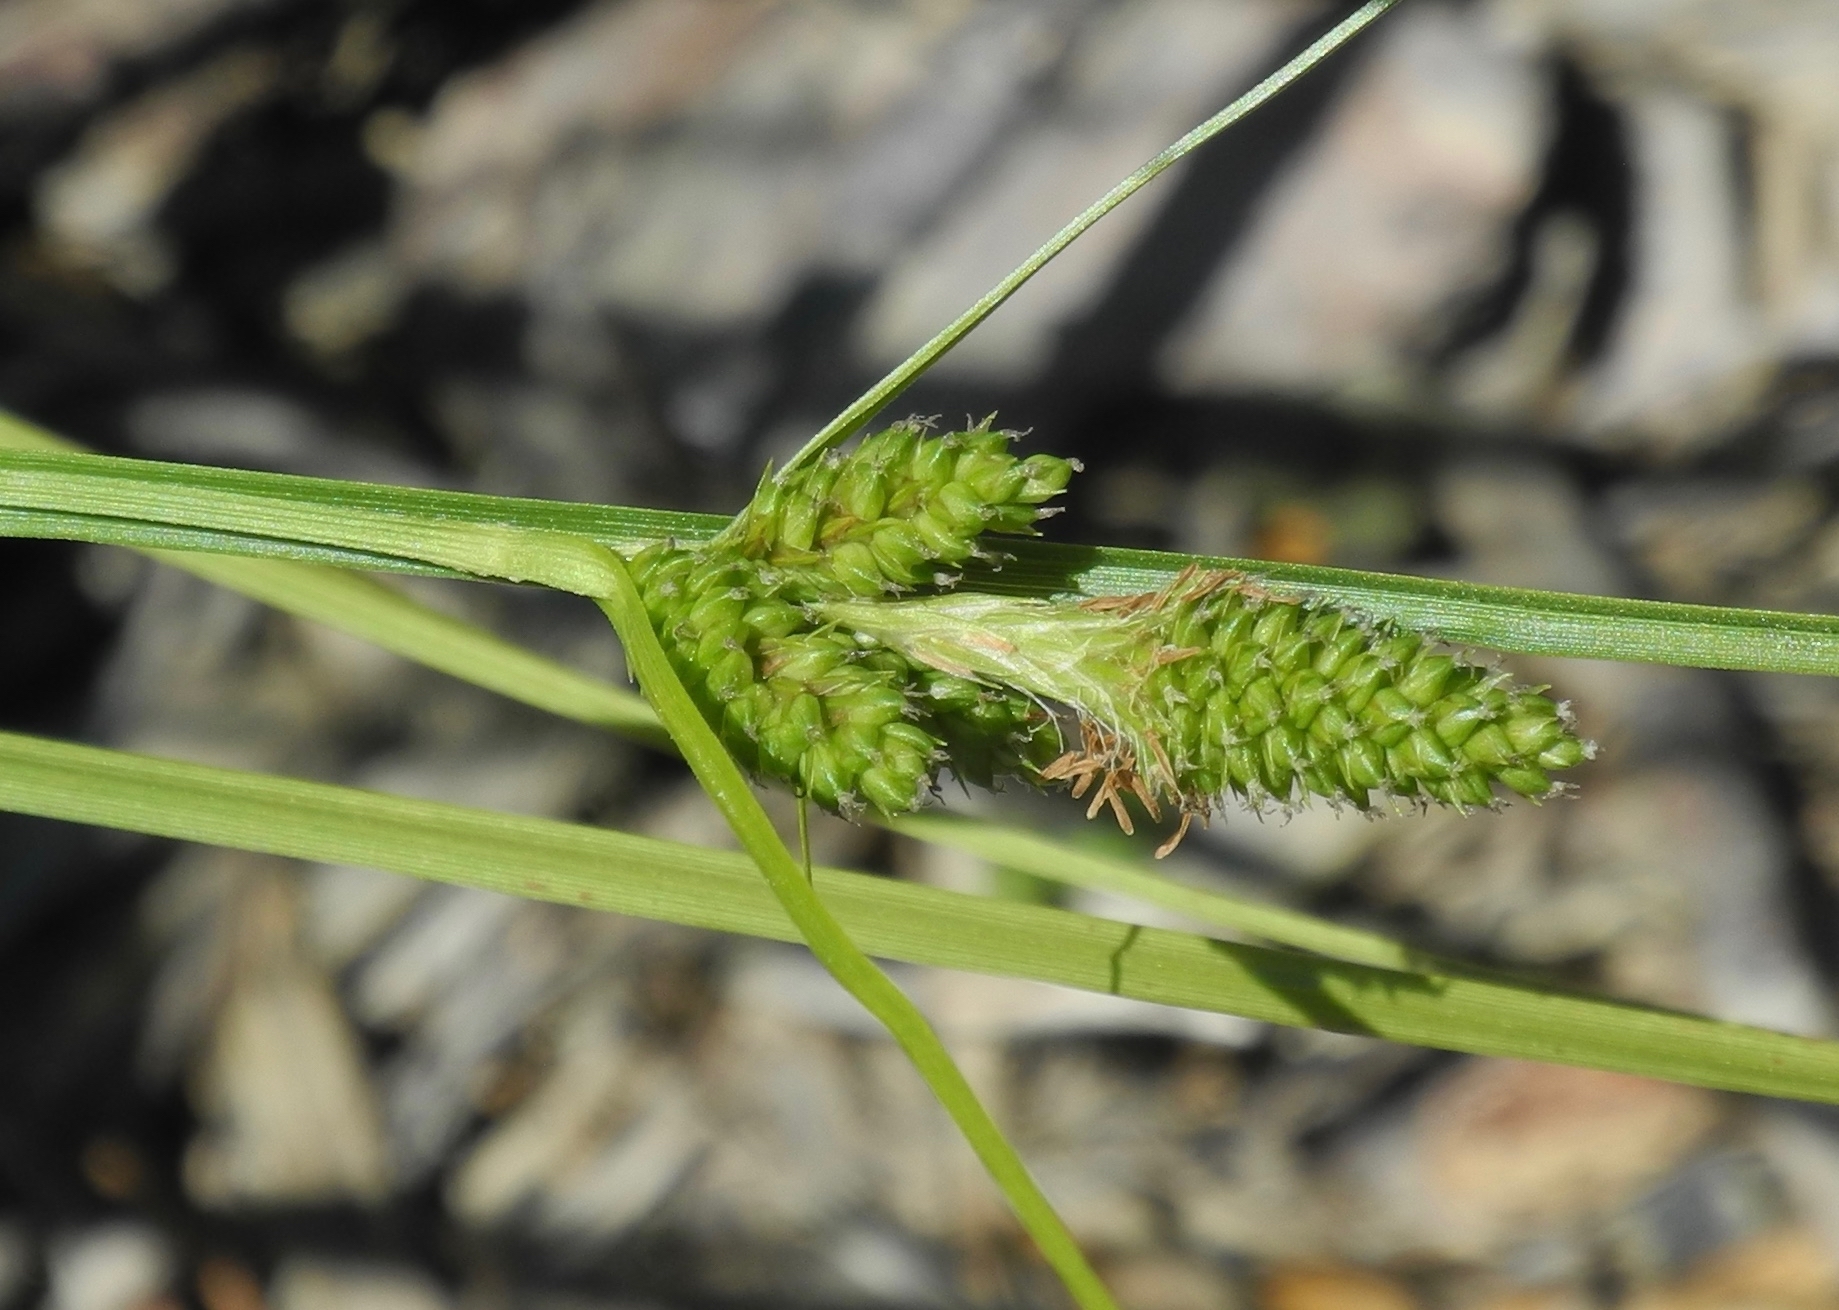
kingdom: Plantae
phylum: Tracheophyta
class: Liliopsida
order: Poales
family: Cyperaceae
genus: Carex
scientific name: Carex complanata
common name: Hirsute sedge
